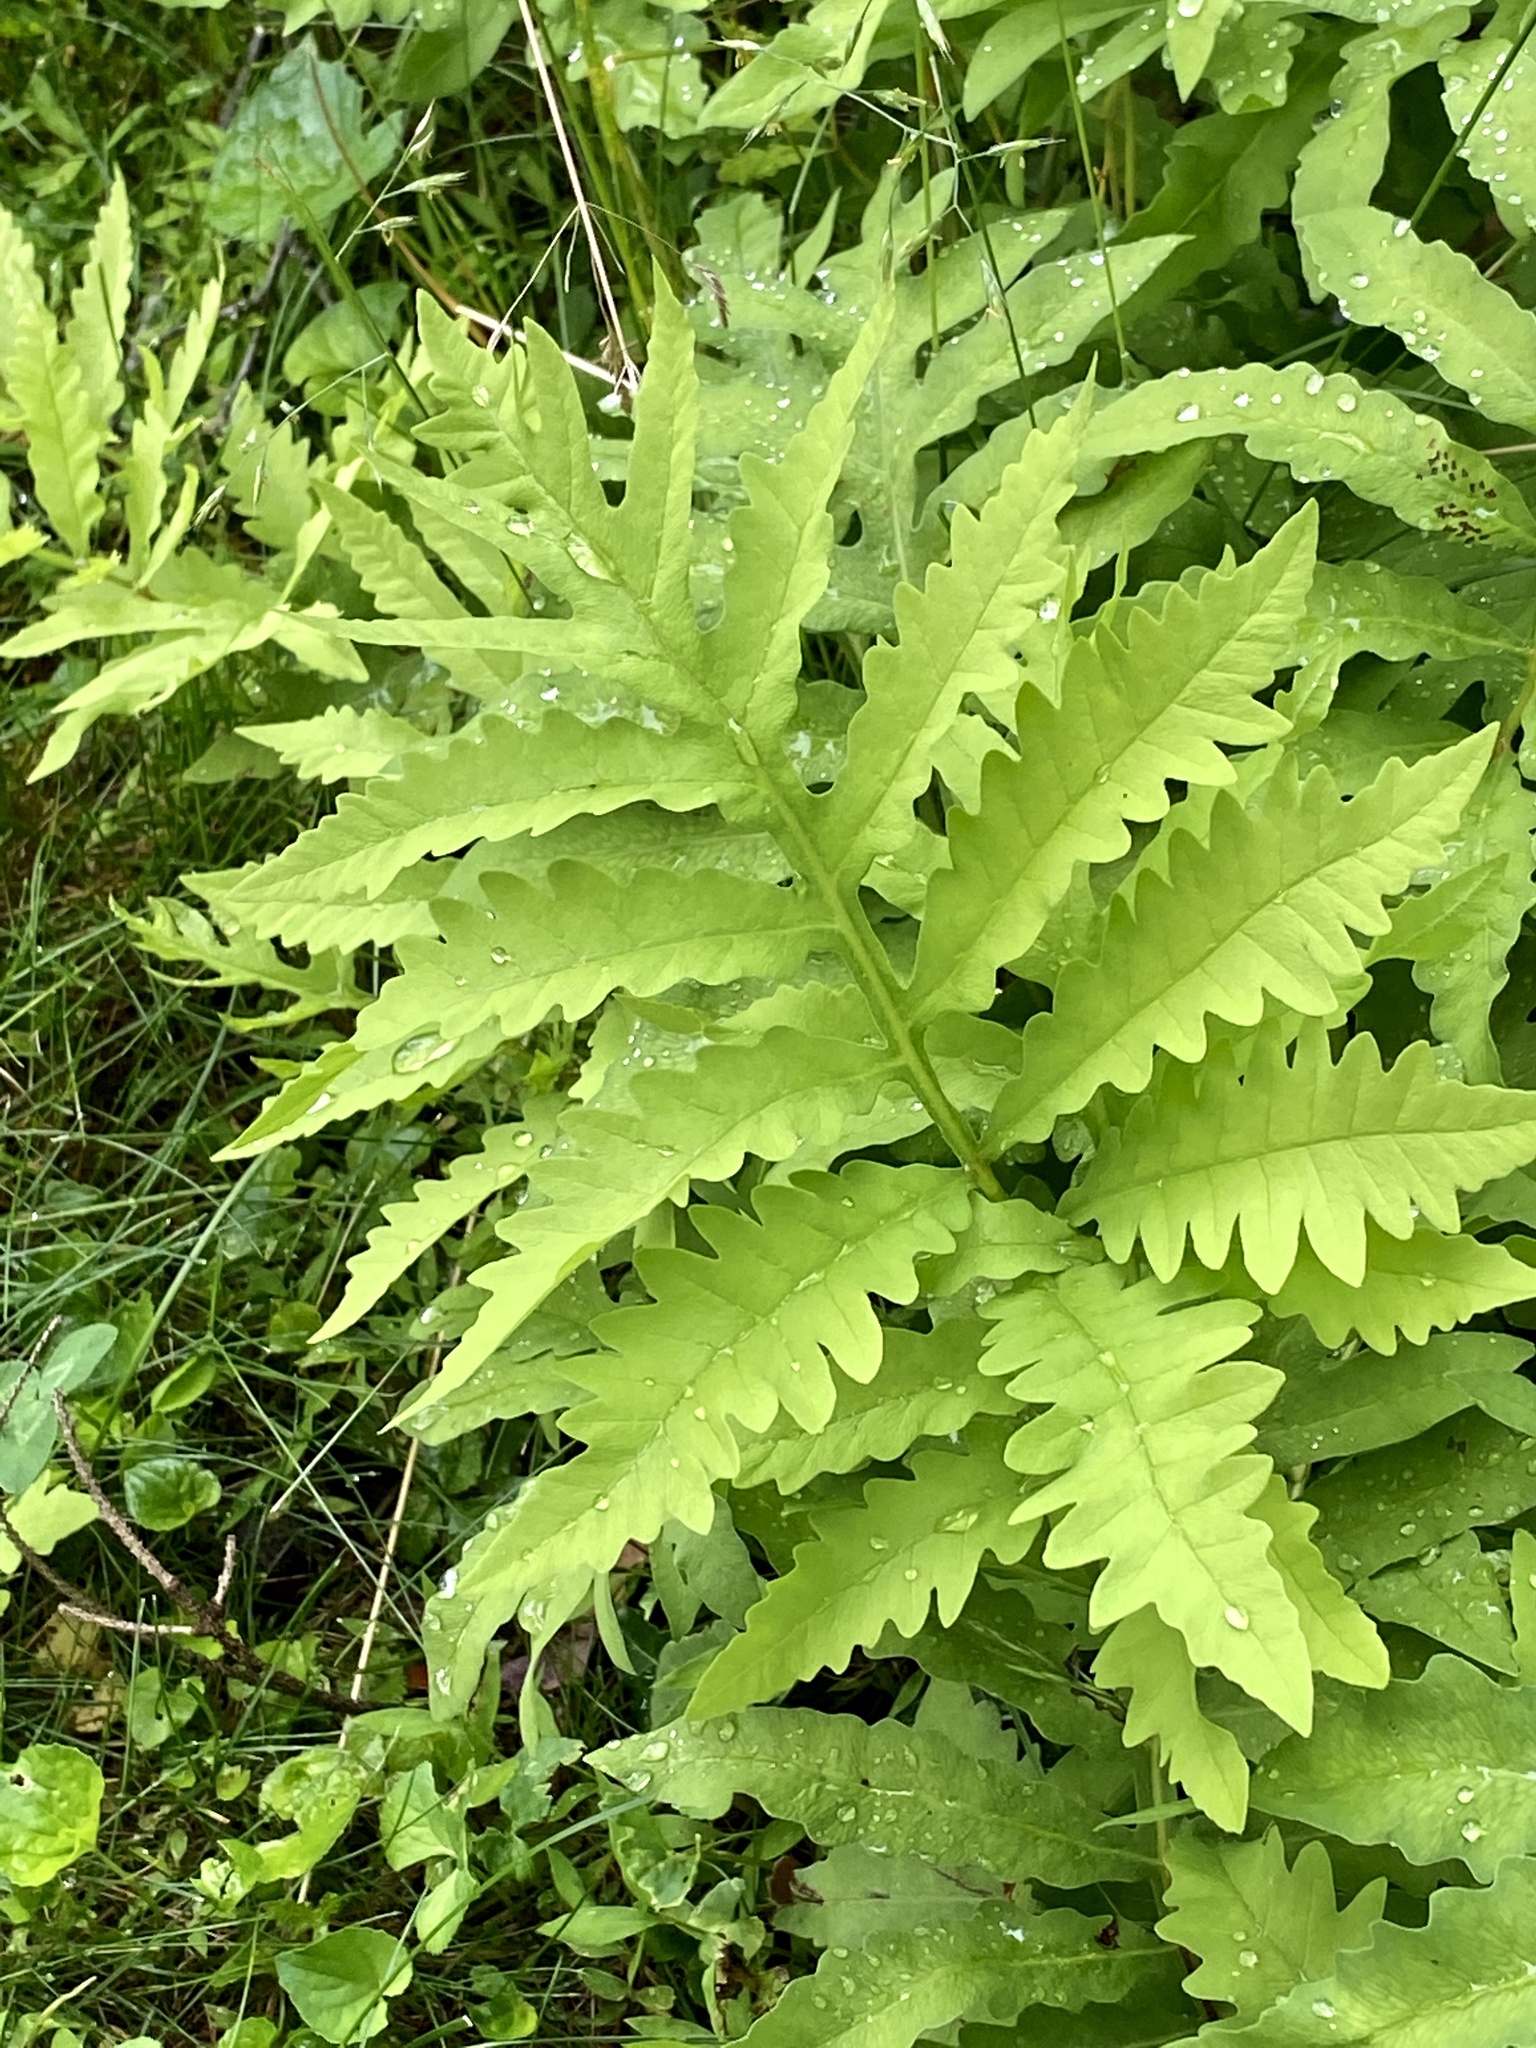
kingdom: Plantae
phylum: Tracheophyta
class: Polypodiopsida
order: Polypodiales
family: Onocleaceae
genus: Onoclea
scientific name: Onoclea sensibilis
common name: Sensitive fern
